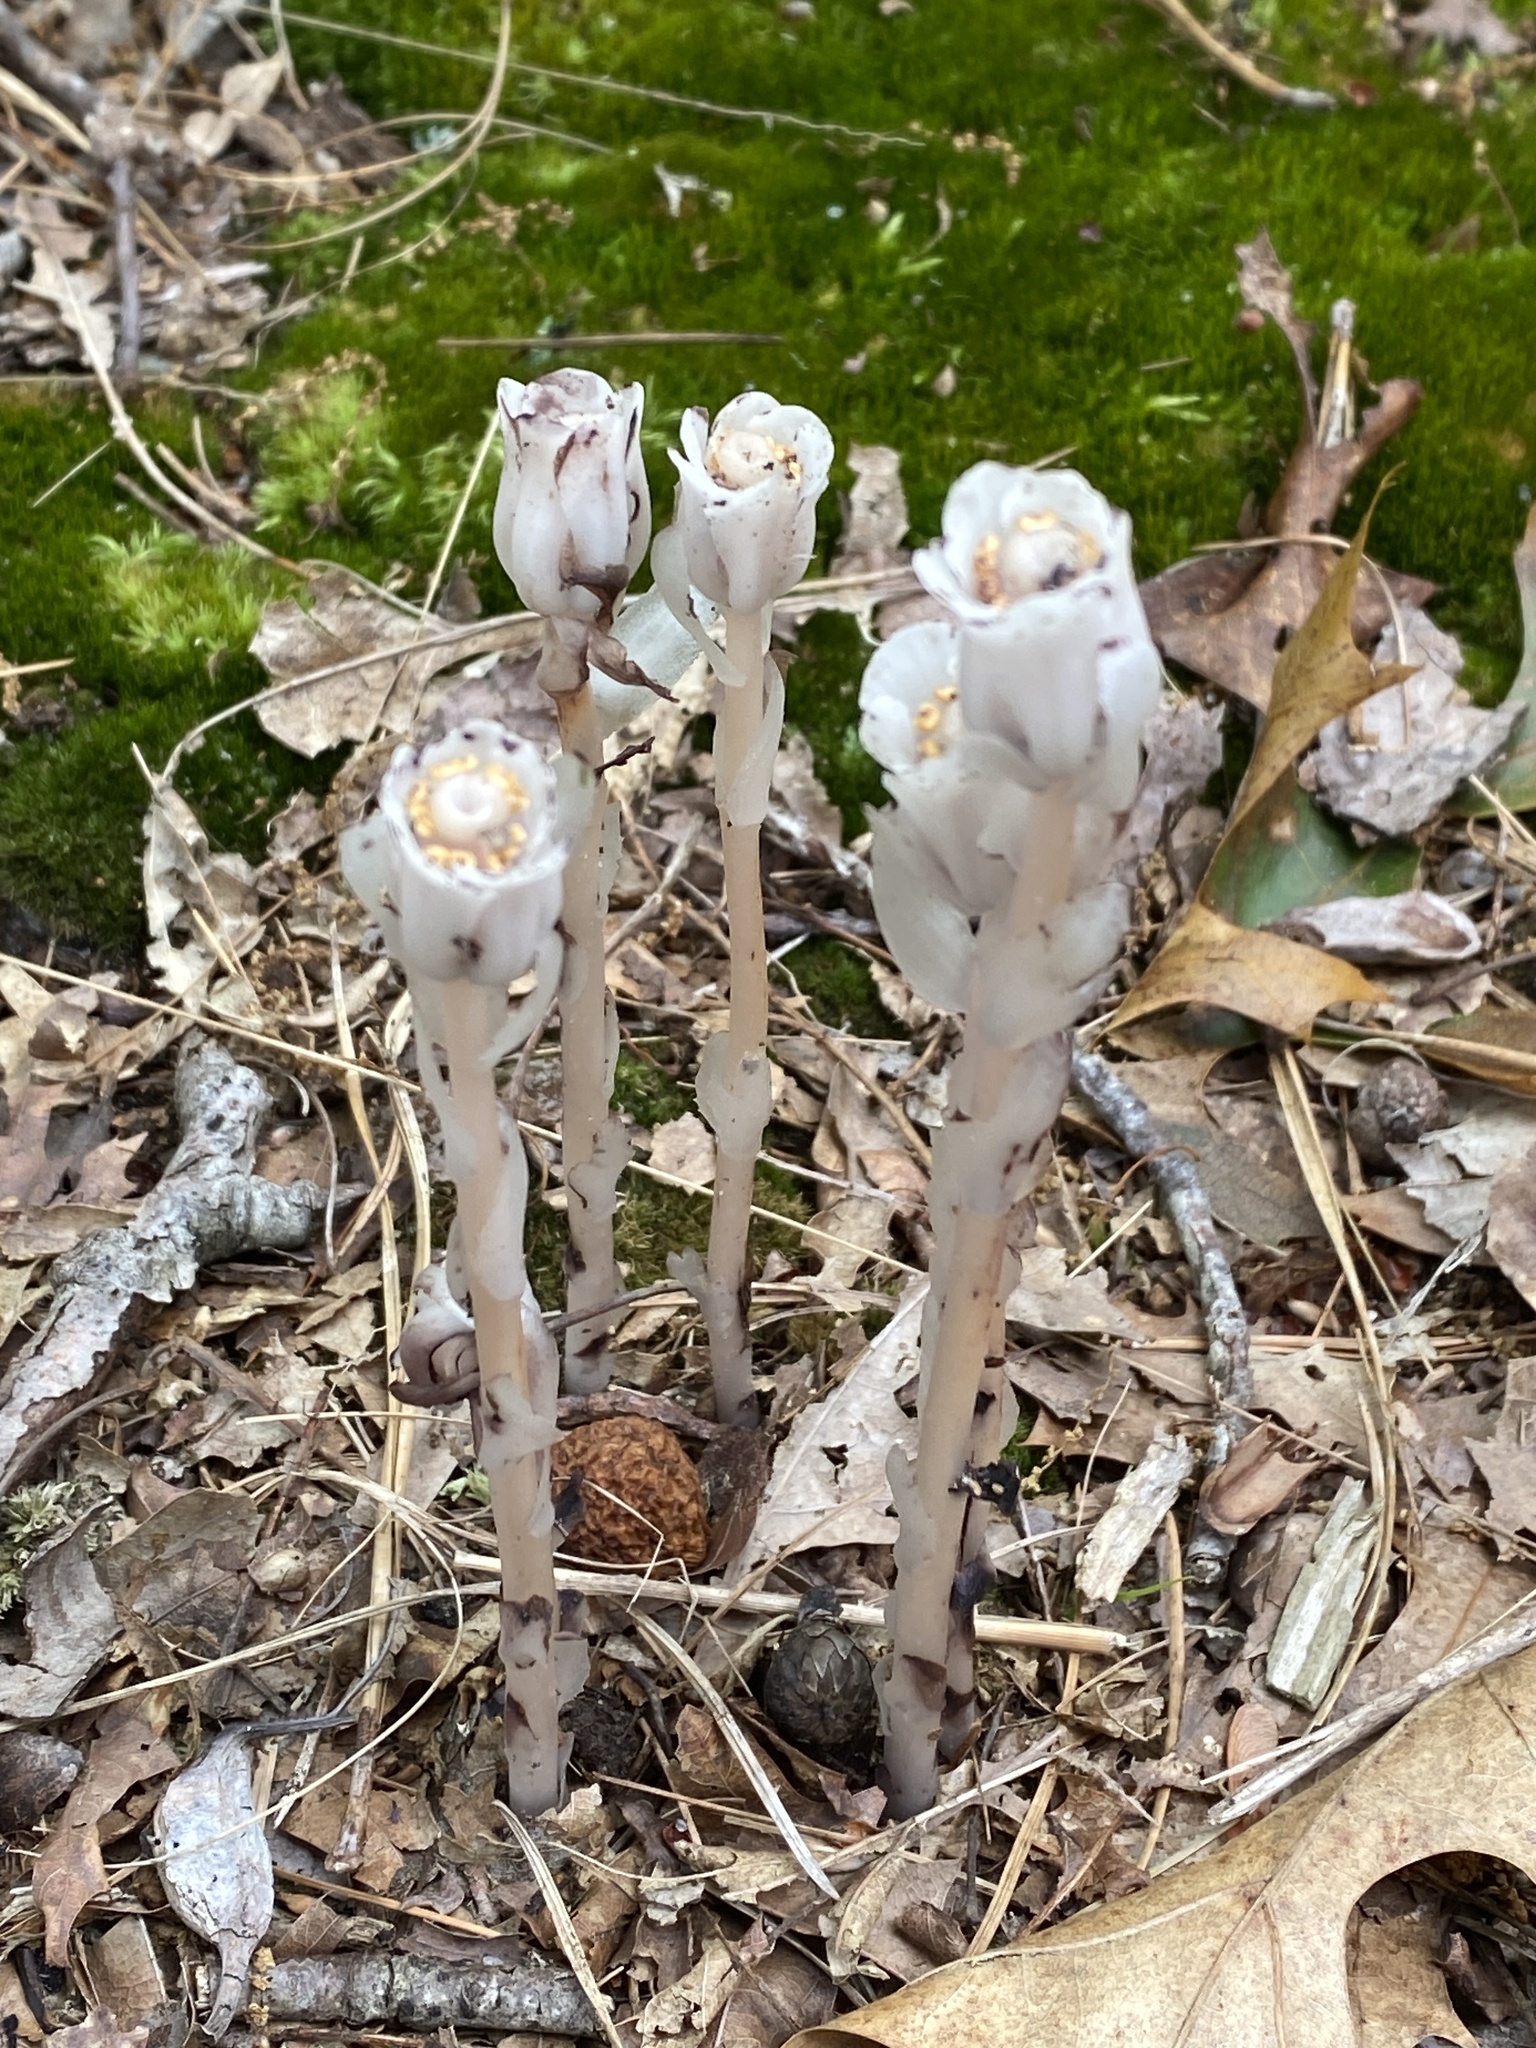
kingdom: Plantae
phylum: Tracheophyta
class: Magnoliopsida
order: Ericales
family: Ericaceae
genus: Monotropa
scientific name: Monotropa uniflora
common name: Convulsion root
